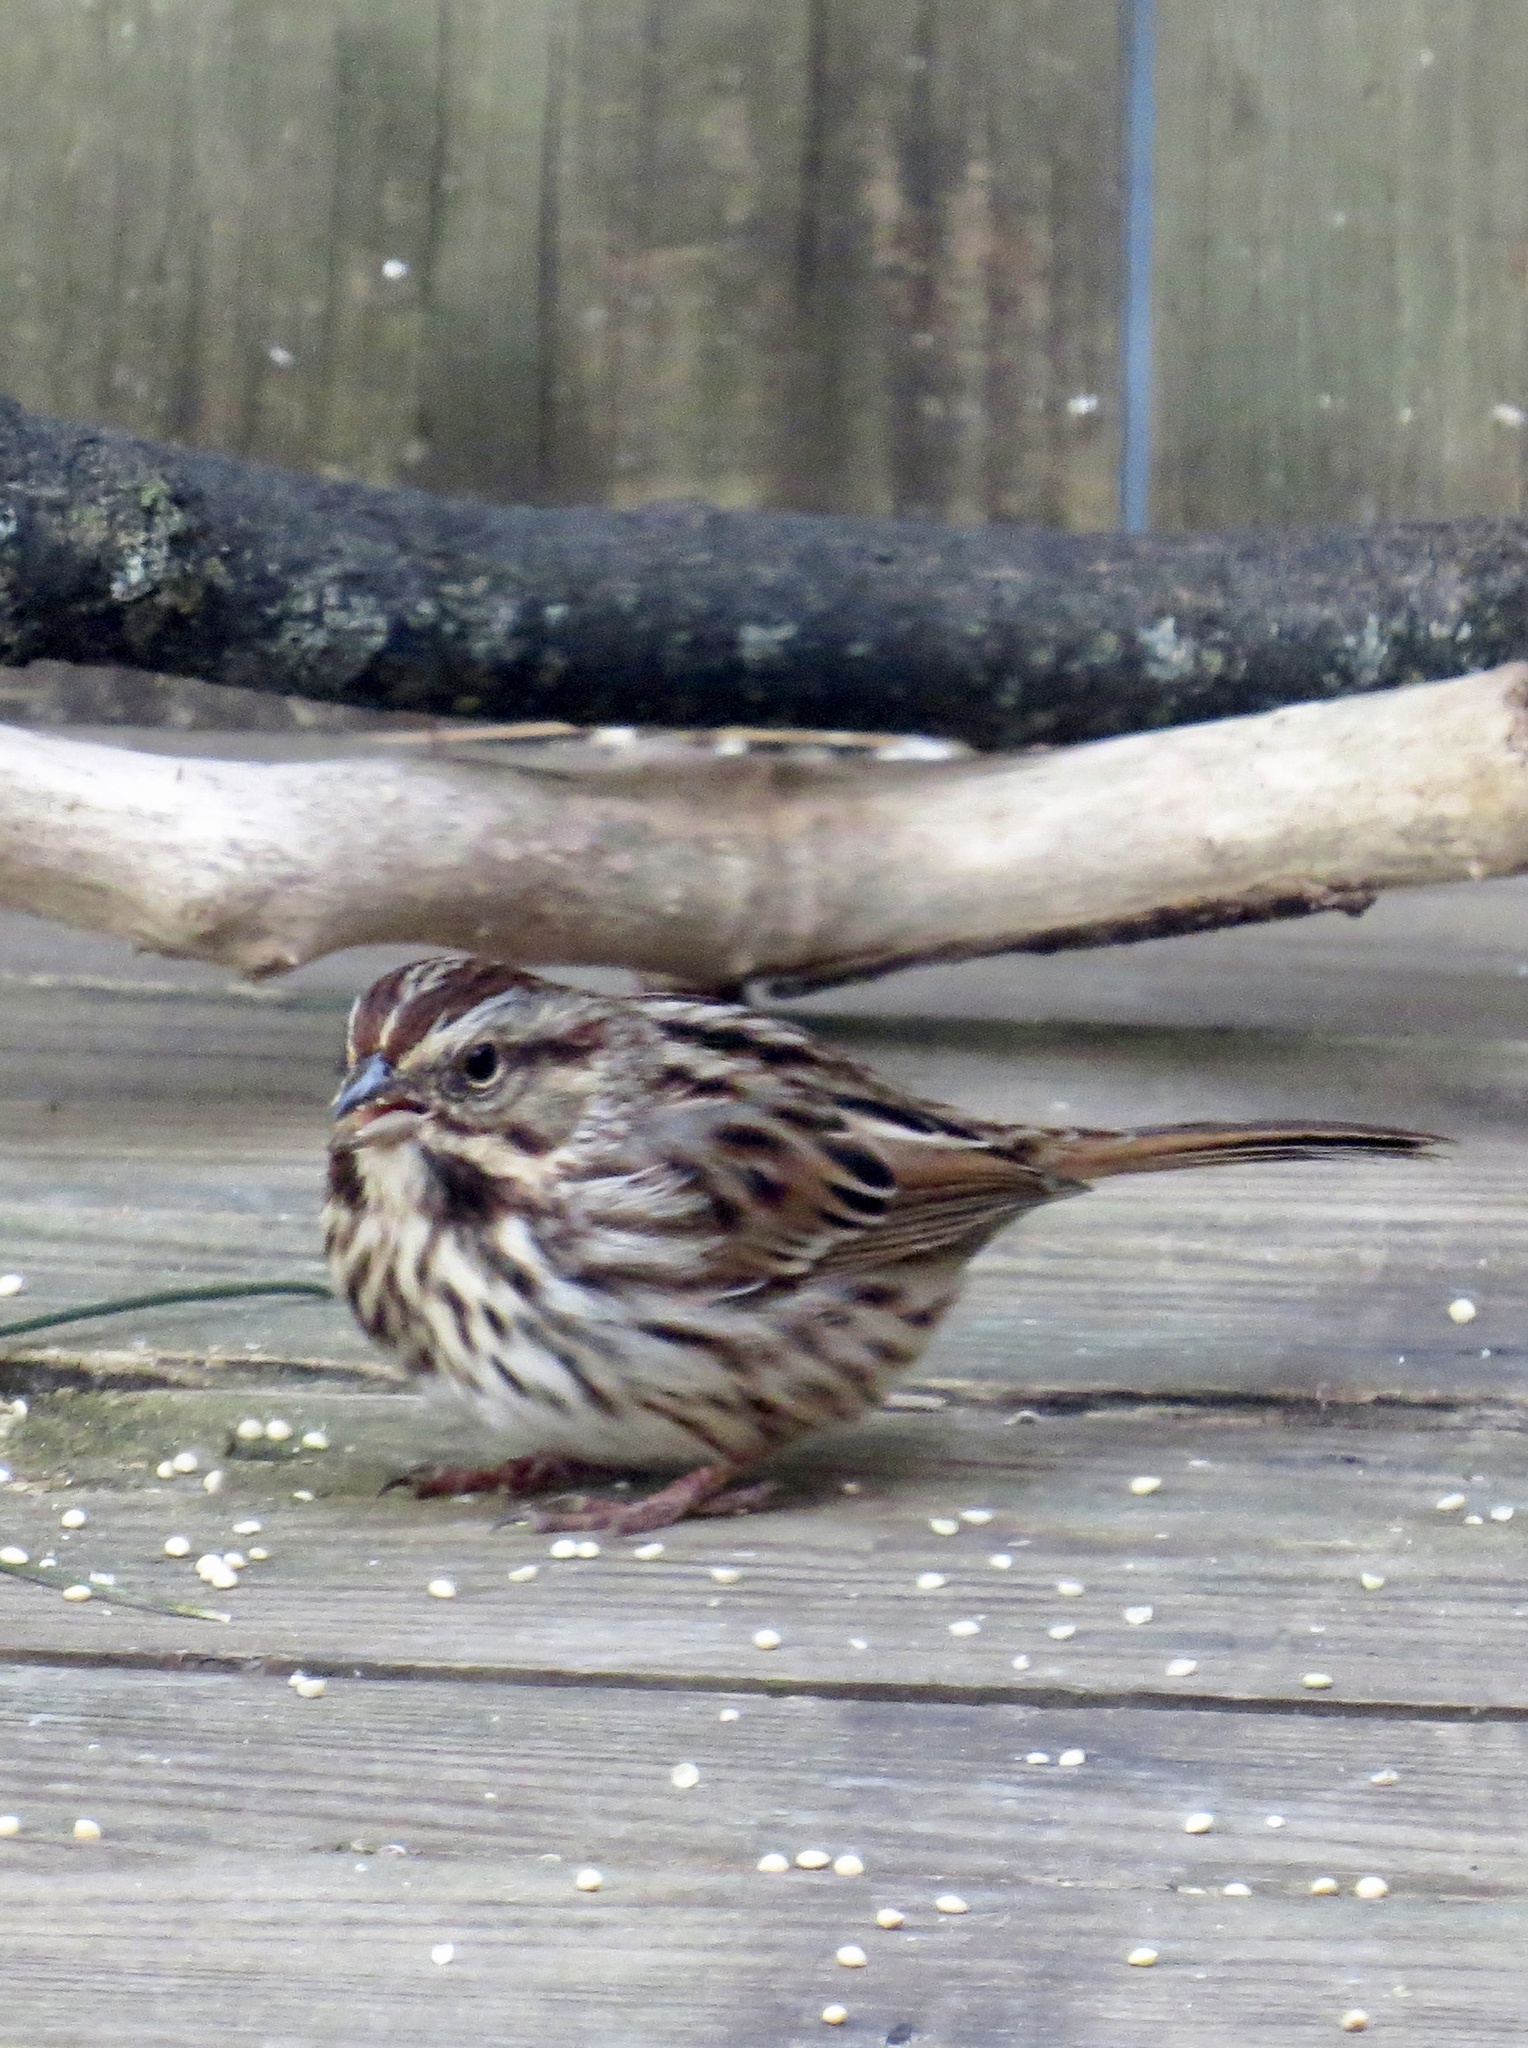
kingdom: Animalia
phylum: Chordata
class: Aves
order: Passeriformes
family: Passerellidae
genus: Melospiza
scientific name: Melospiza melodia
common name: Song sparrow
